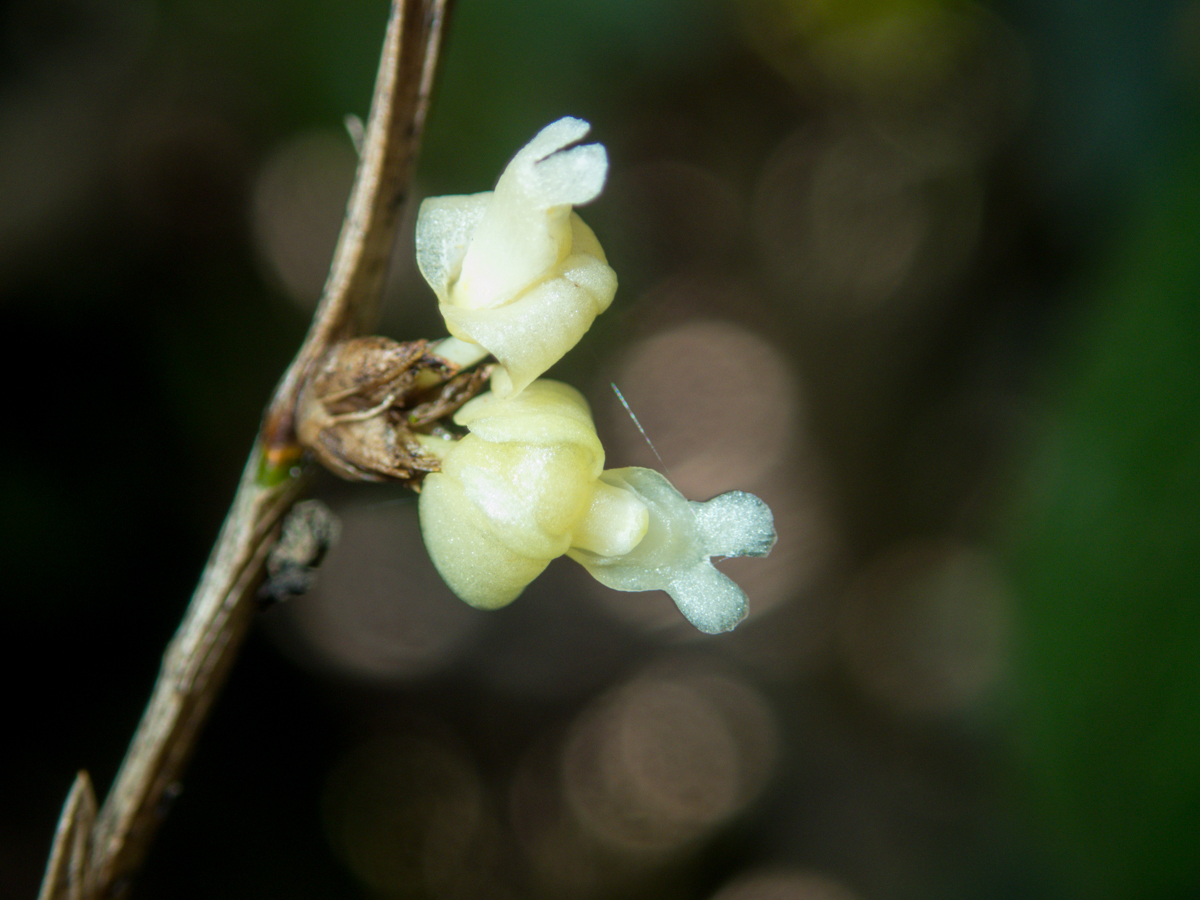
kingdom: Plantae
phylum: Tracheophyta
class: Liliopsida
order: Asparagales
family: Orchidaceae
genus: Dendrobium
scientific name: Dendrobium aloifolium
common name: Aloe-like dendrobium
